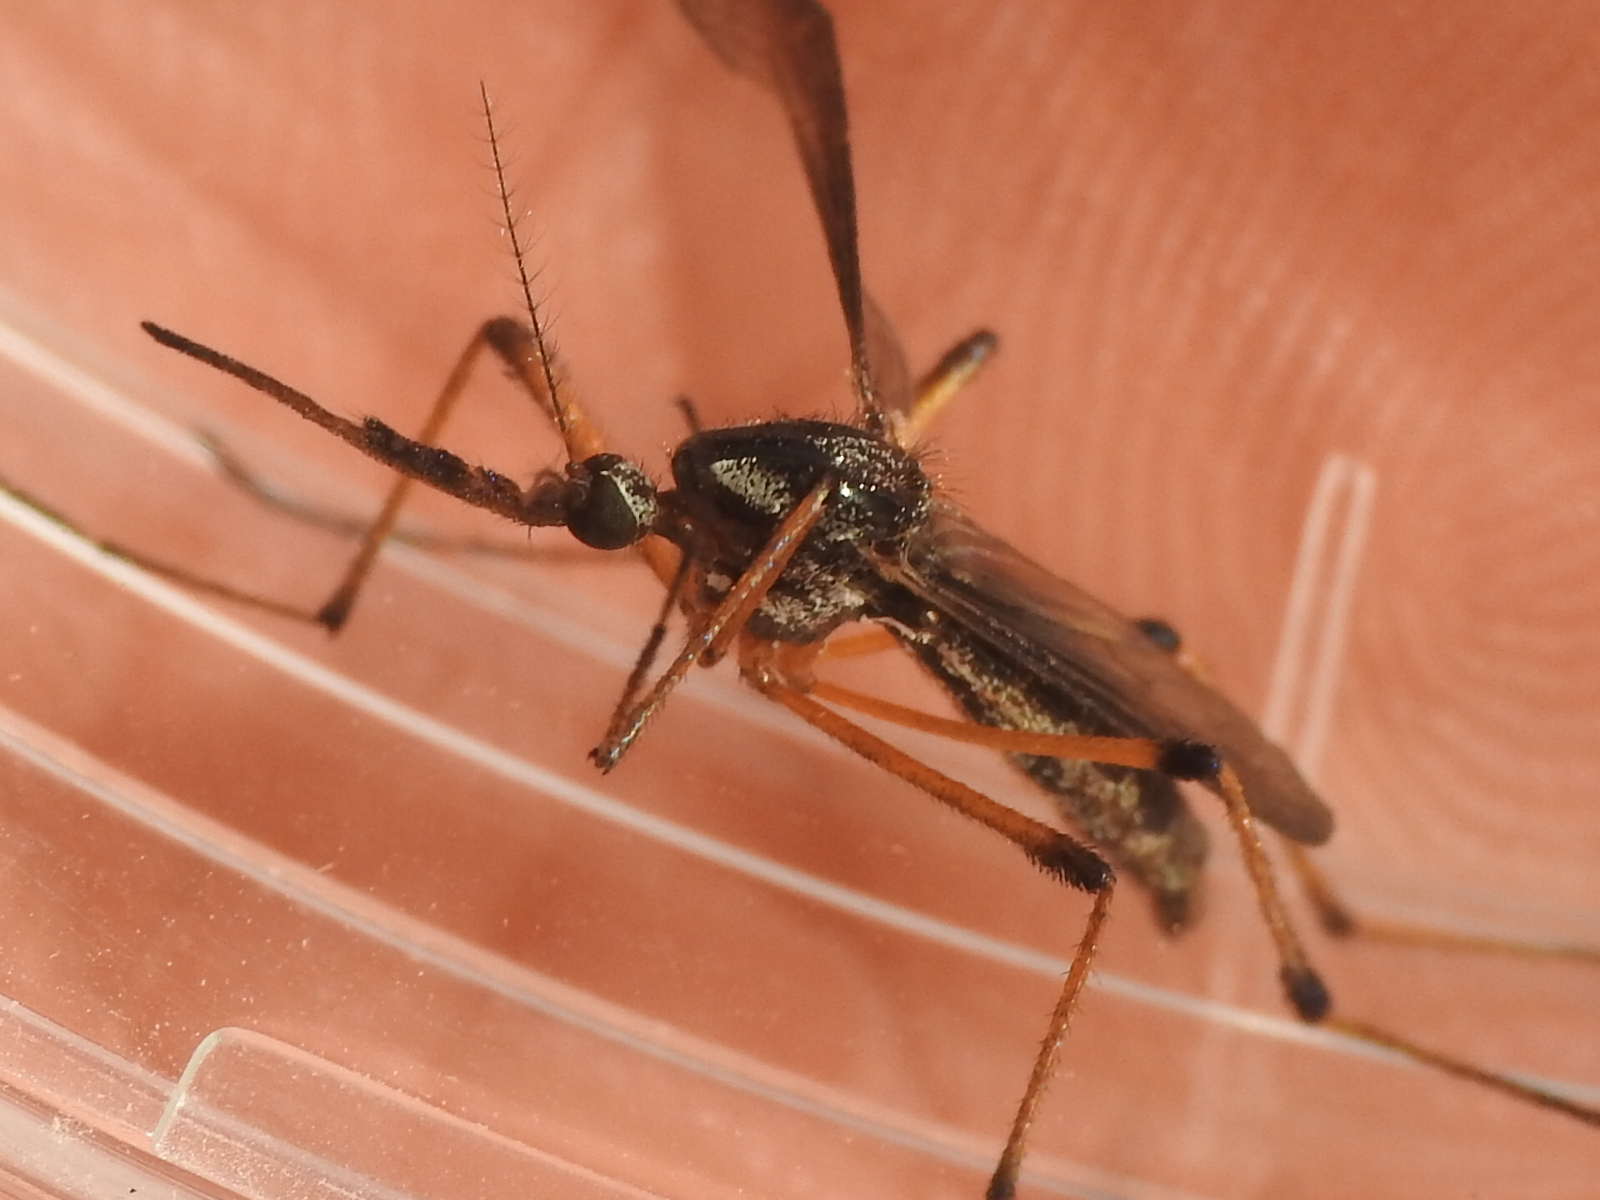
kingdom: Animalia
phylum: Arthropoda
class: Insecta
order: Diptera
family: Culicidae
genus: Psorophora
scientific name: Psorophora howardii
